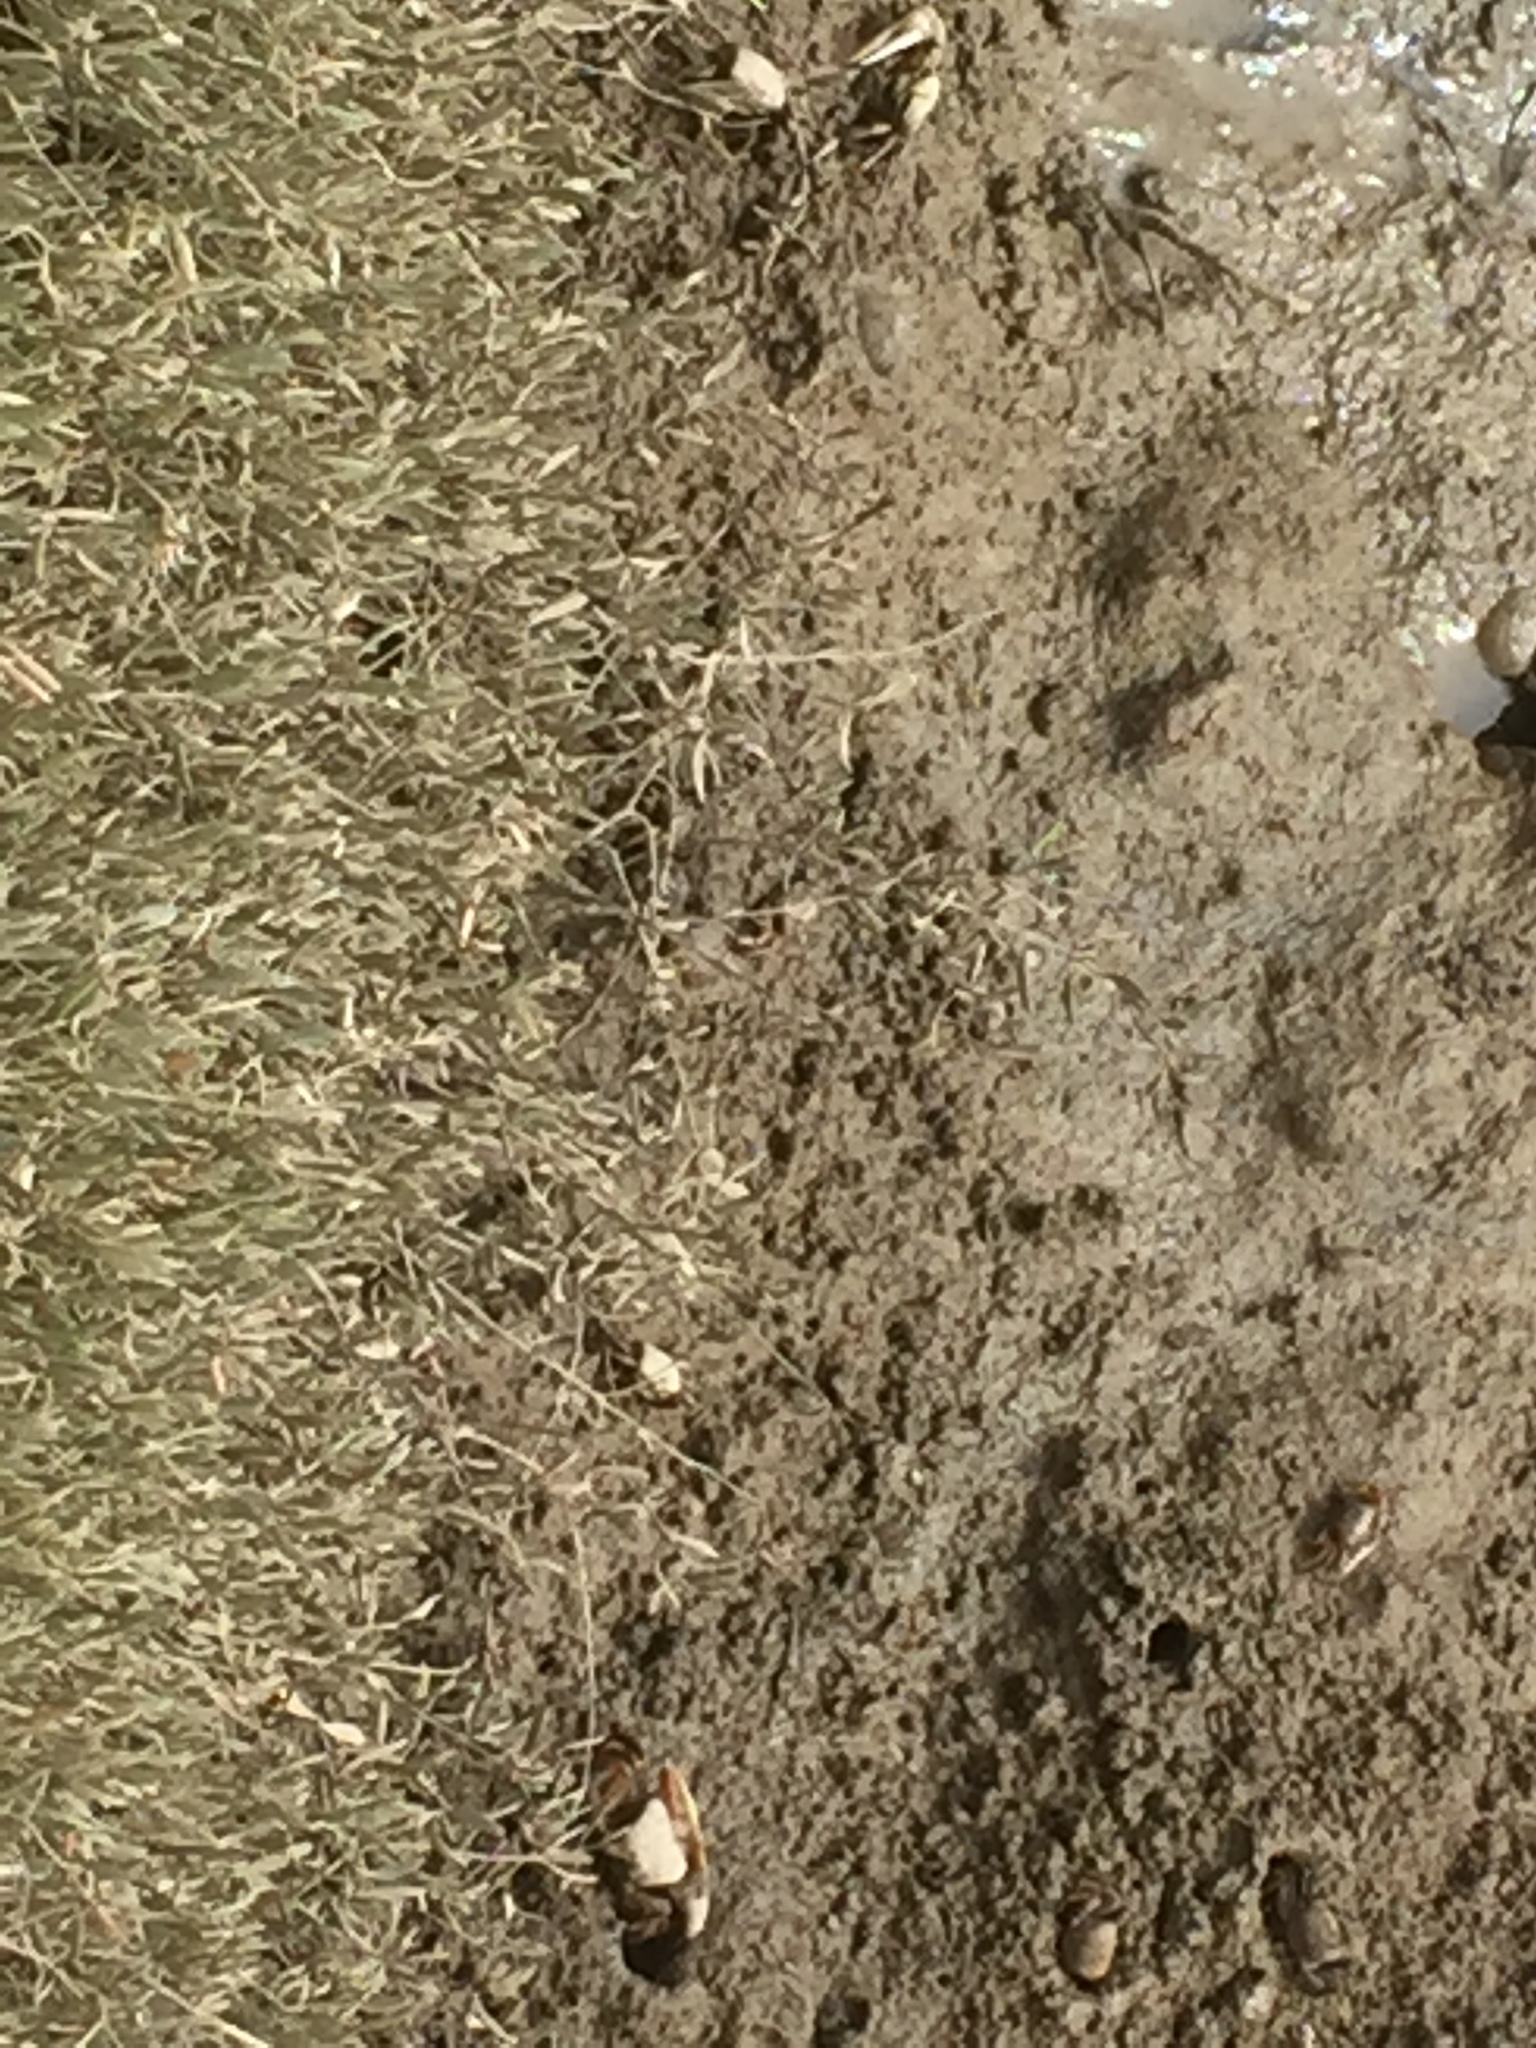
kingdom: Animalia
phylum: Arthropoda
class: Malacostraca
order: Decapoda
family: Ocypodidae
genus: Afruca
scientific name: Afruca tangeri
